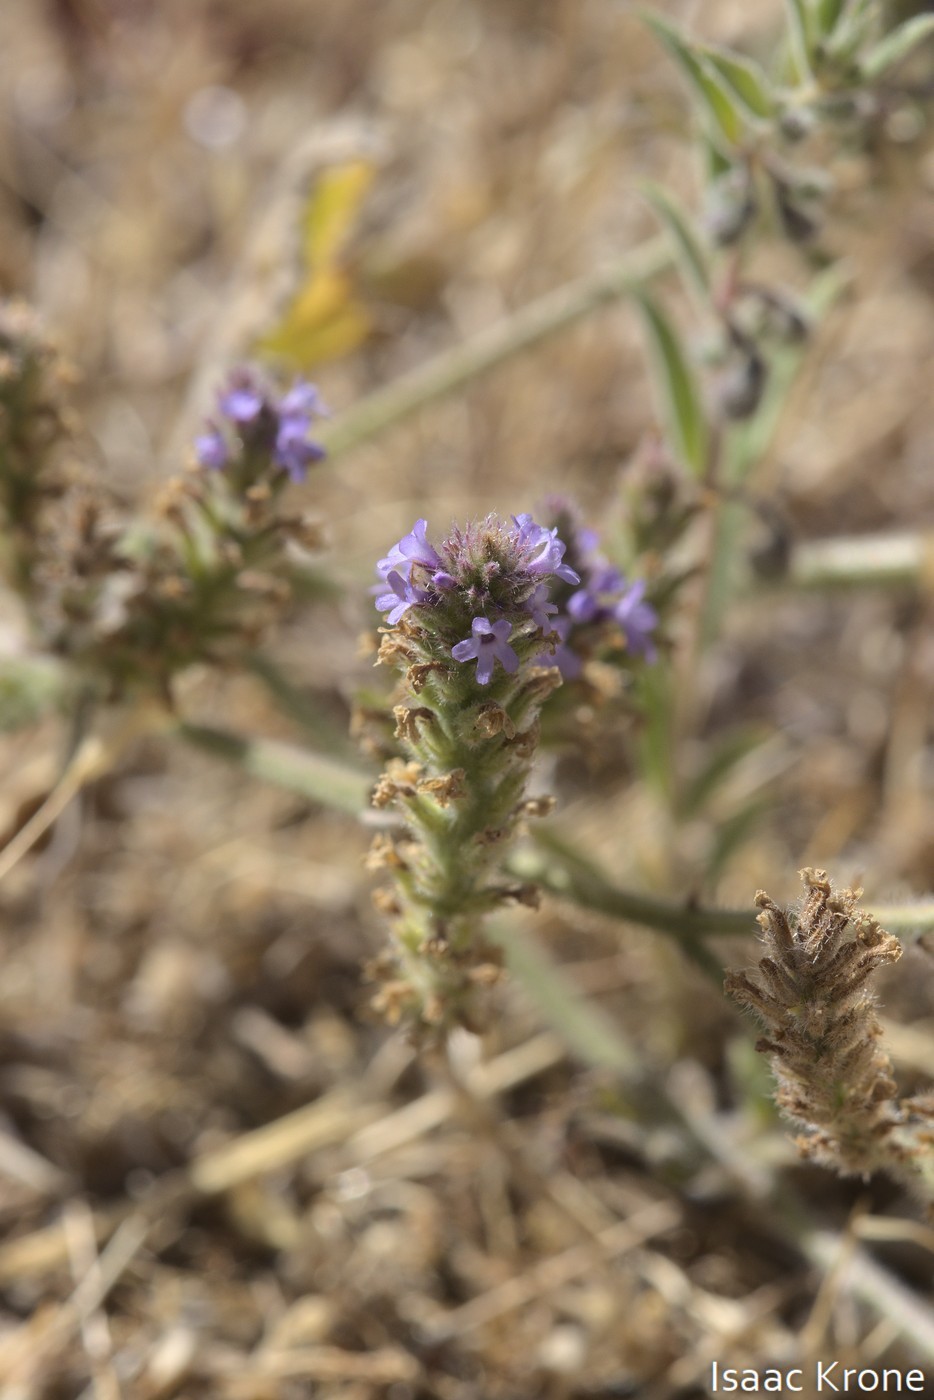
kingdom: Plantae
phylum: Tracheophyta
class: Magnoliopsida
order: Lamiales
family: Verbenaceae
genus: Verbena
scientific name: Verbena lasiostachys
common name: Vervain
